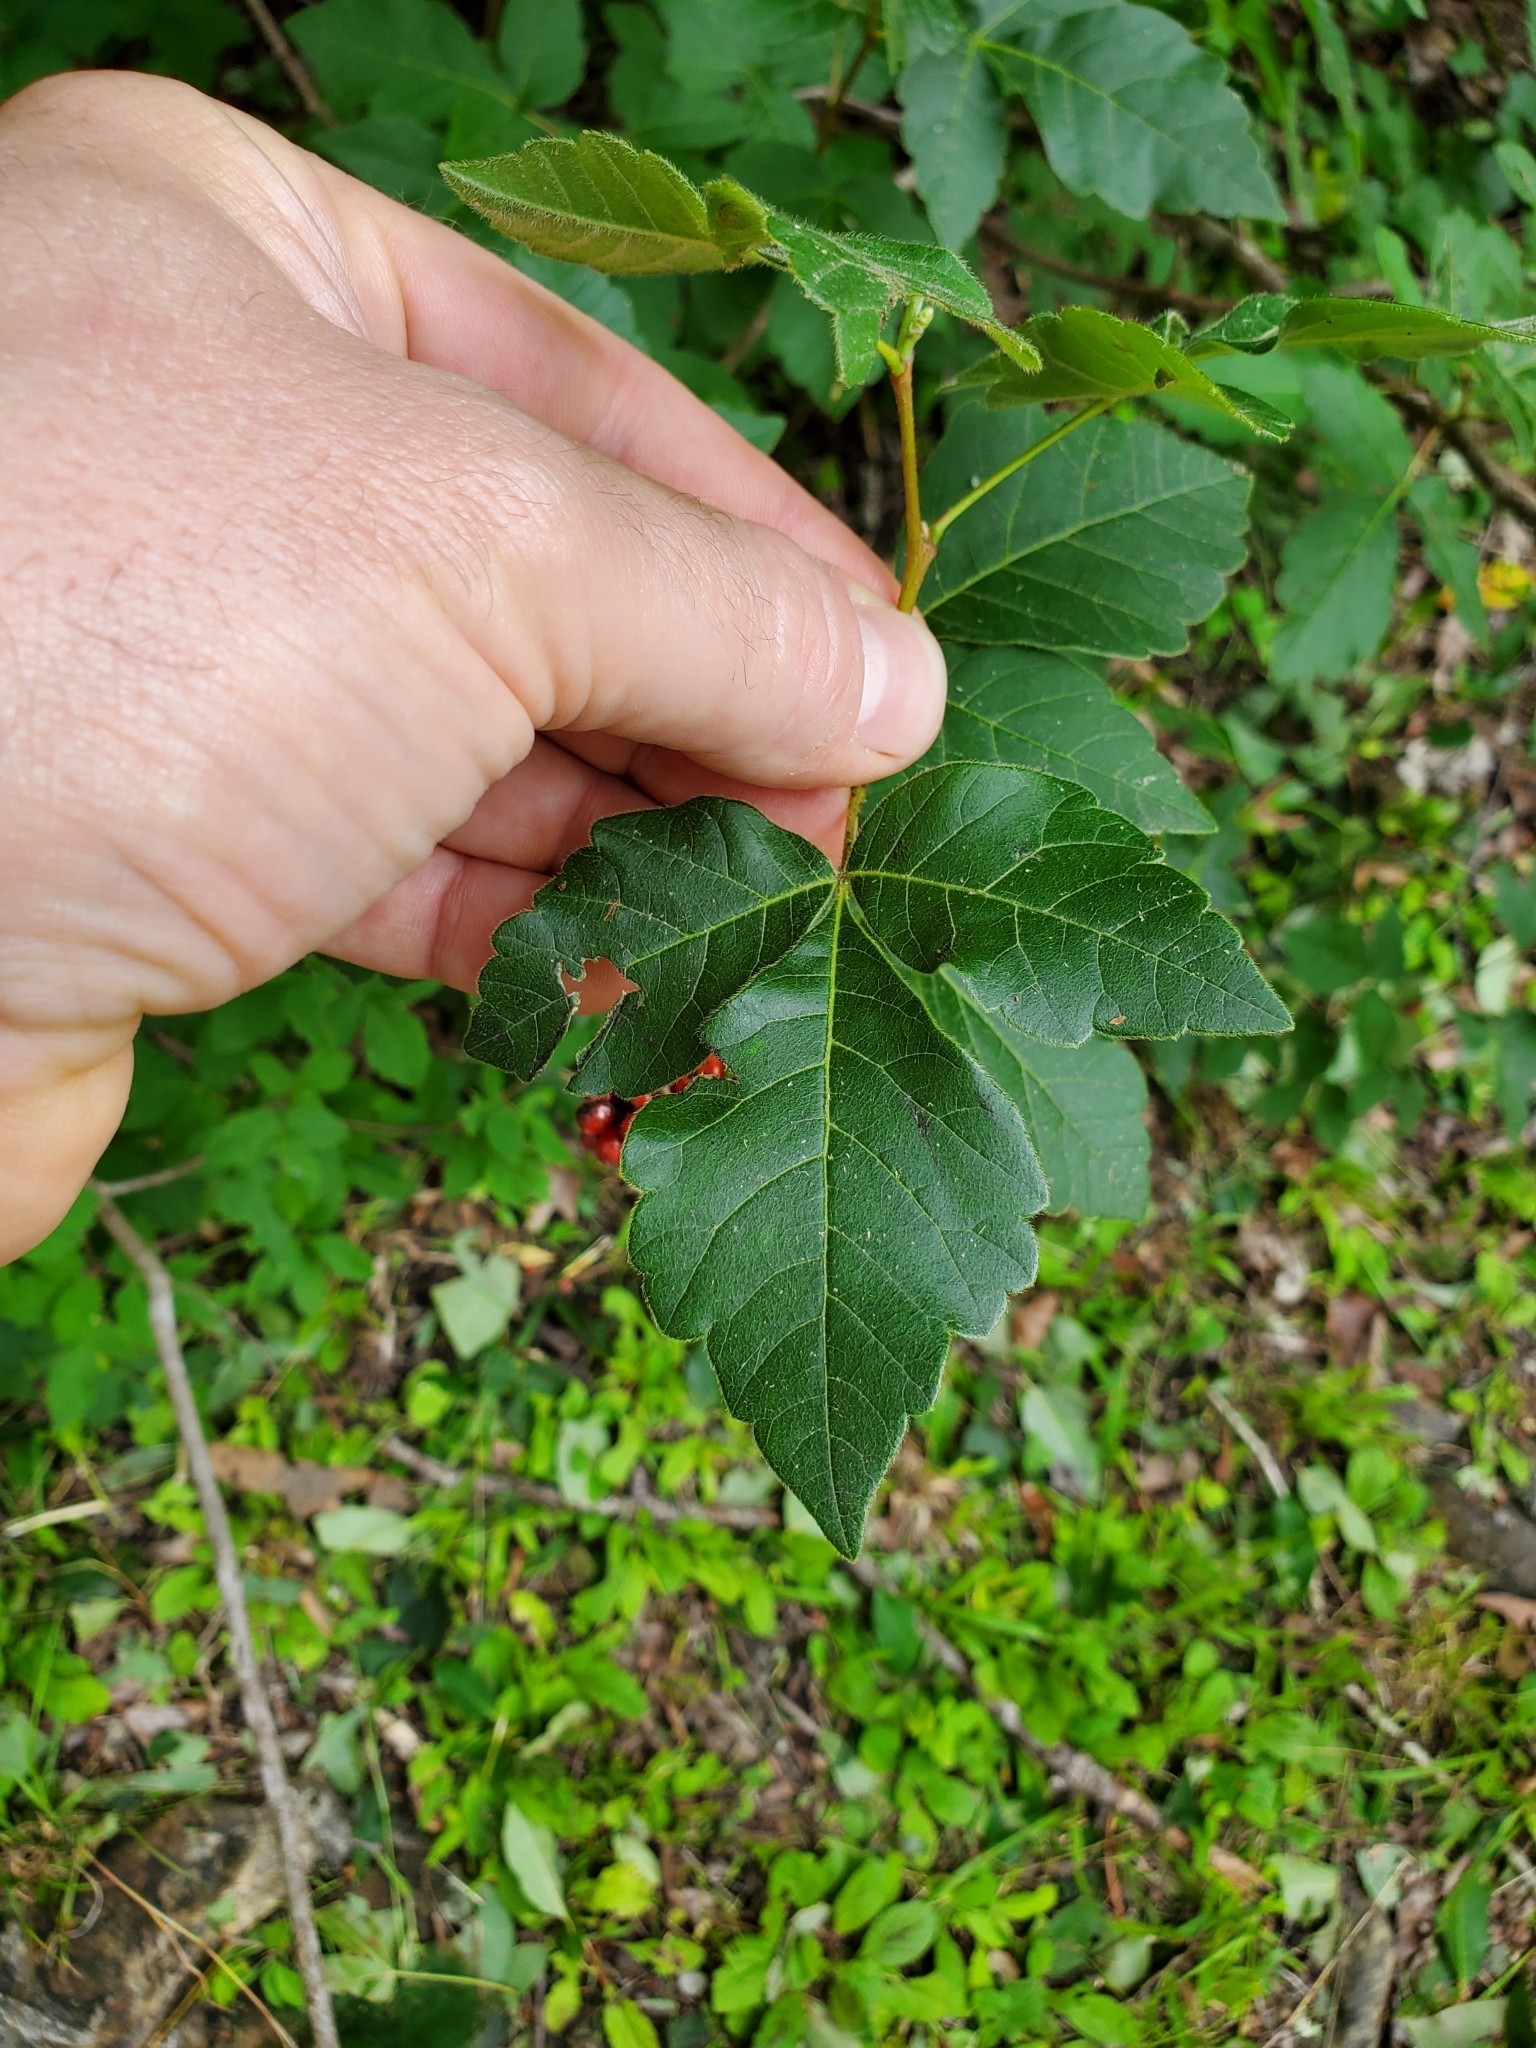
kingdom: Plantae
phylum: Tracheophyta
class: Magnoliopsida
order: Sapindales
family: Anacardiaceae
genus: Rhus
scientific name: Rhus aromatica
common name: Aromatic sumac
